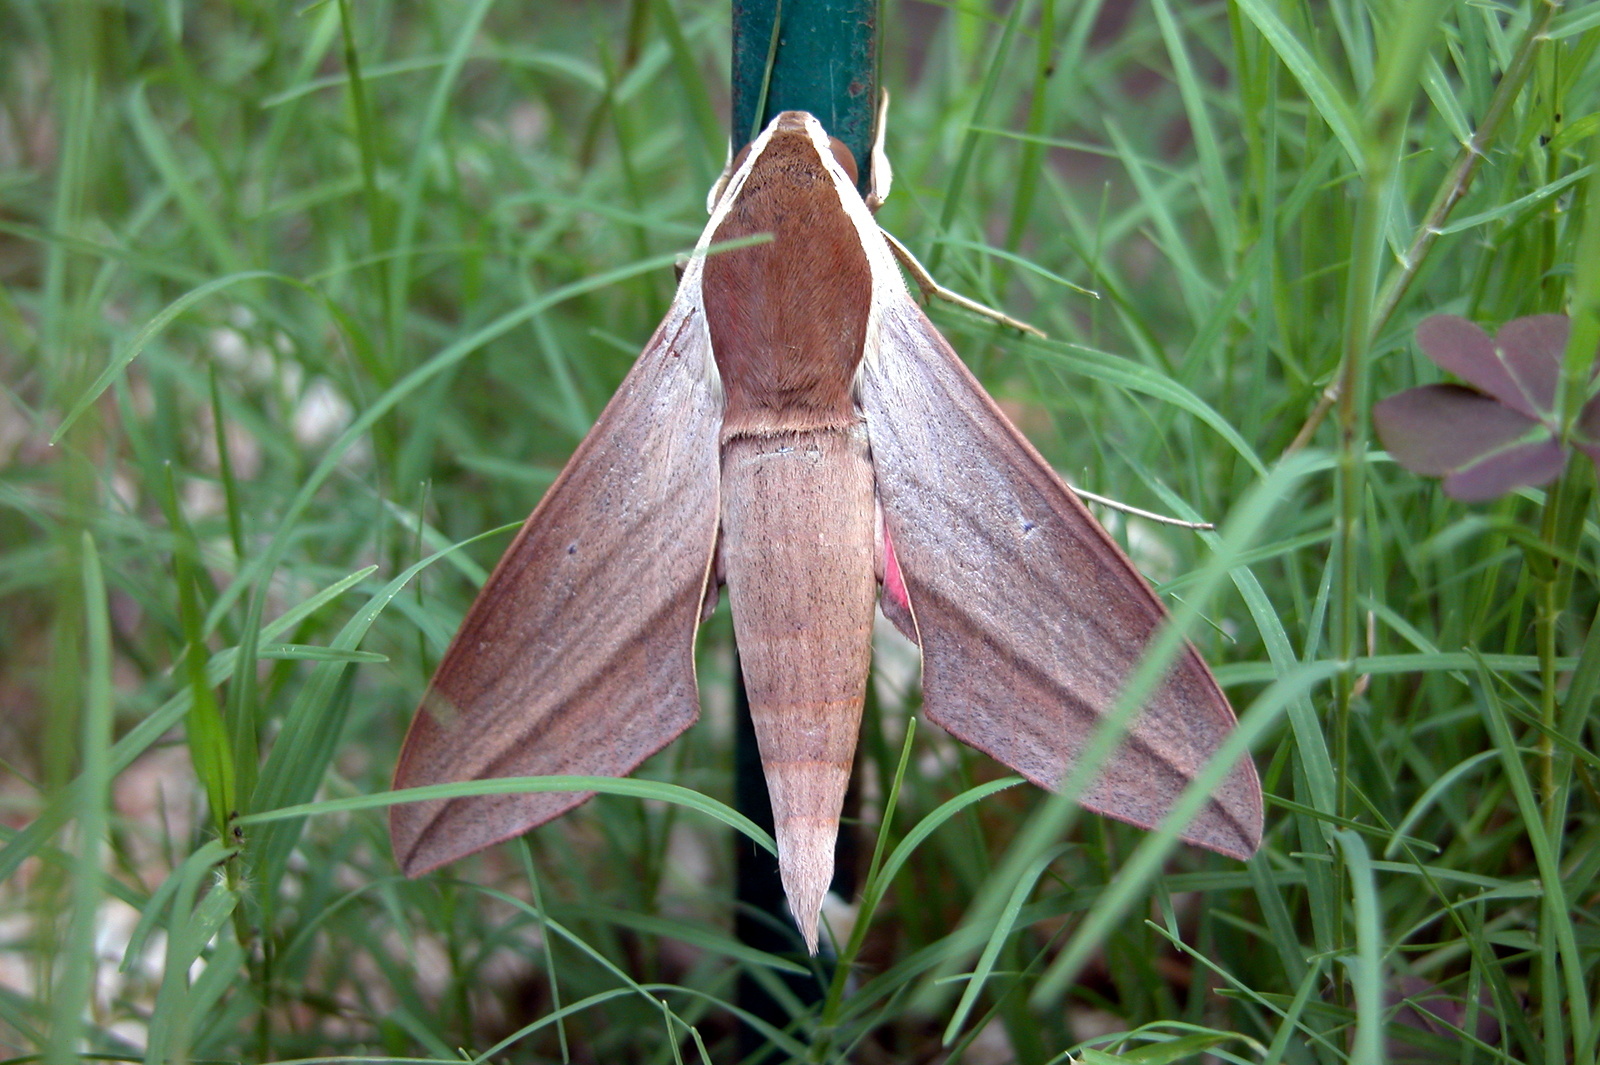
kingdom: Animalia
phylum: Arthropoda
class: Insecta
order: Lepidoptera
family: Sphingidae
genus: Theretra
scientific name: Theretra alecto
